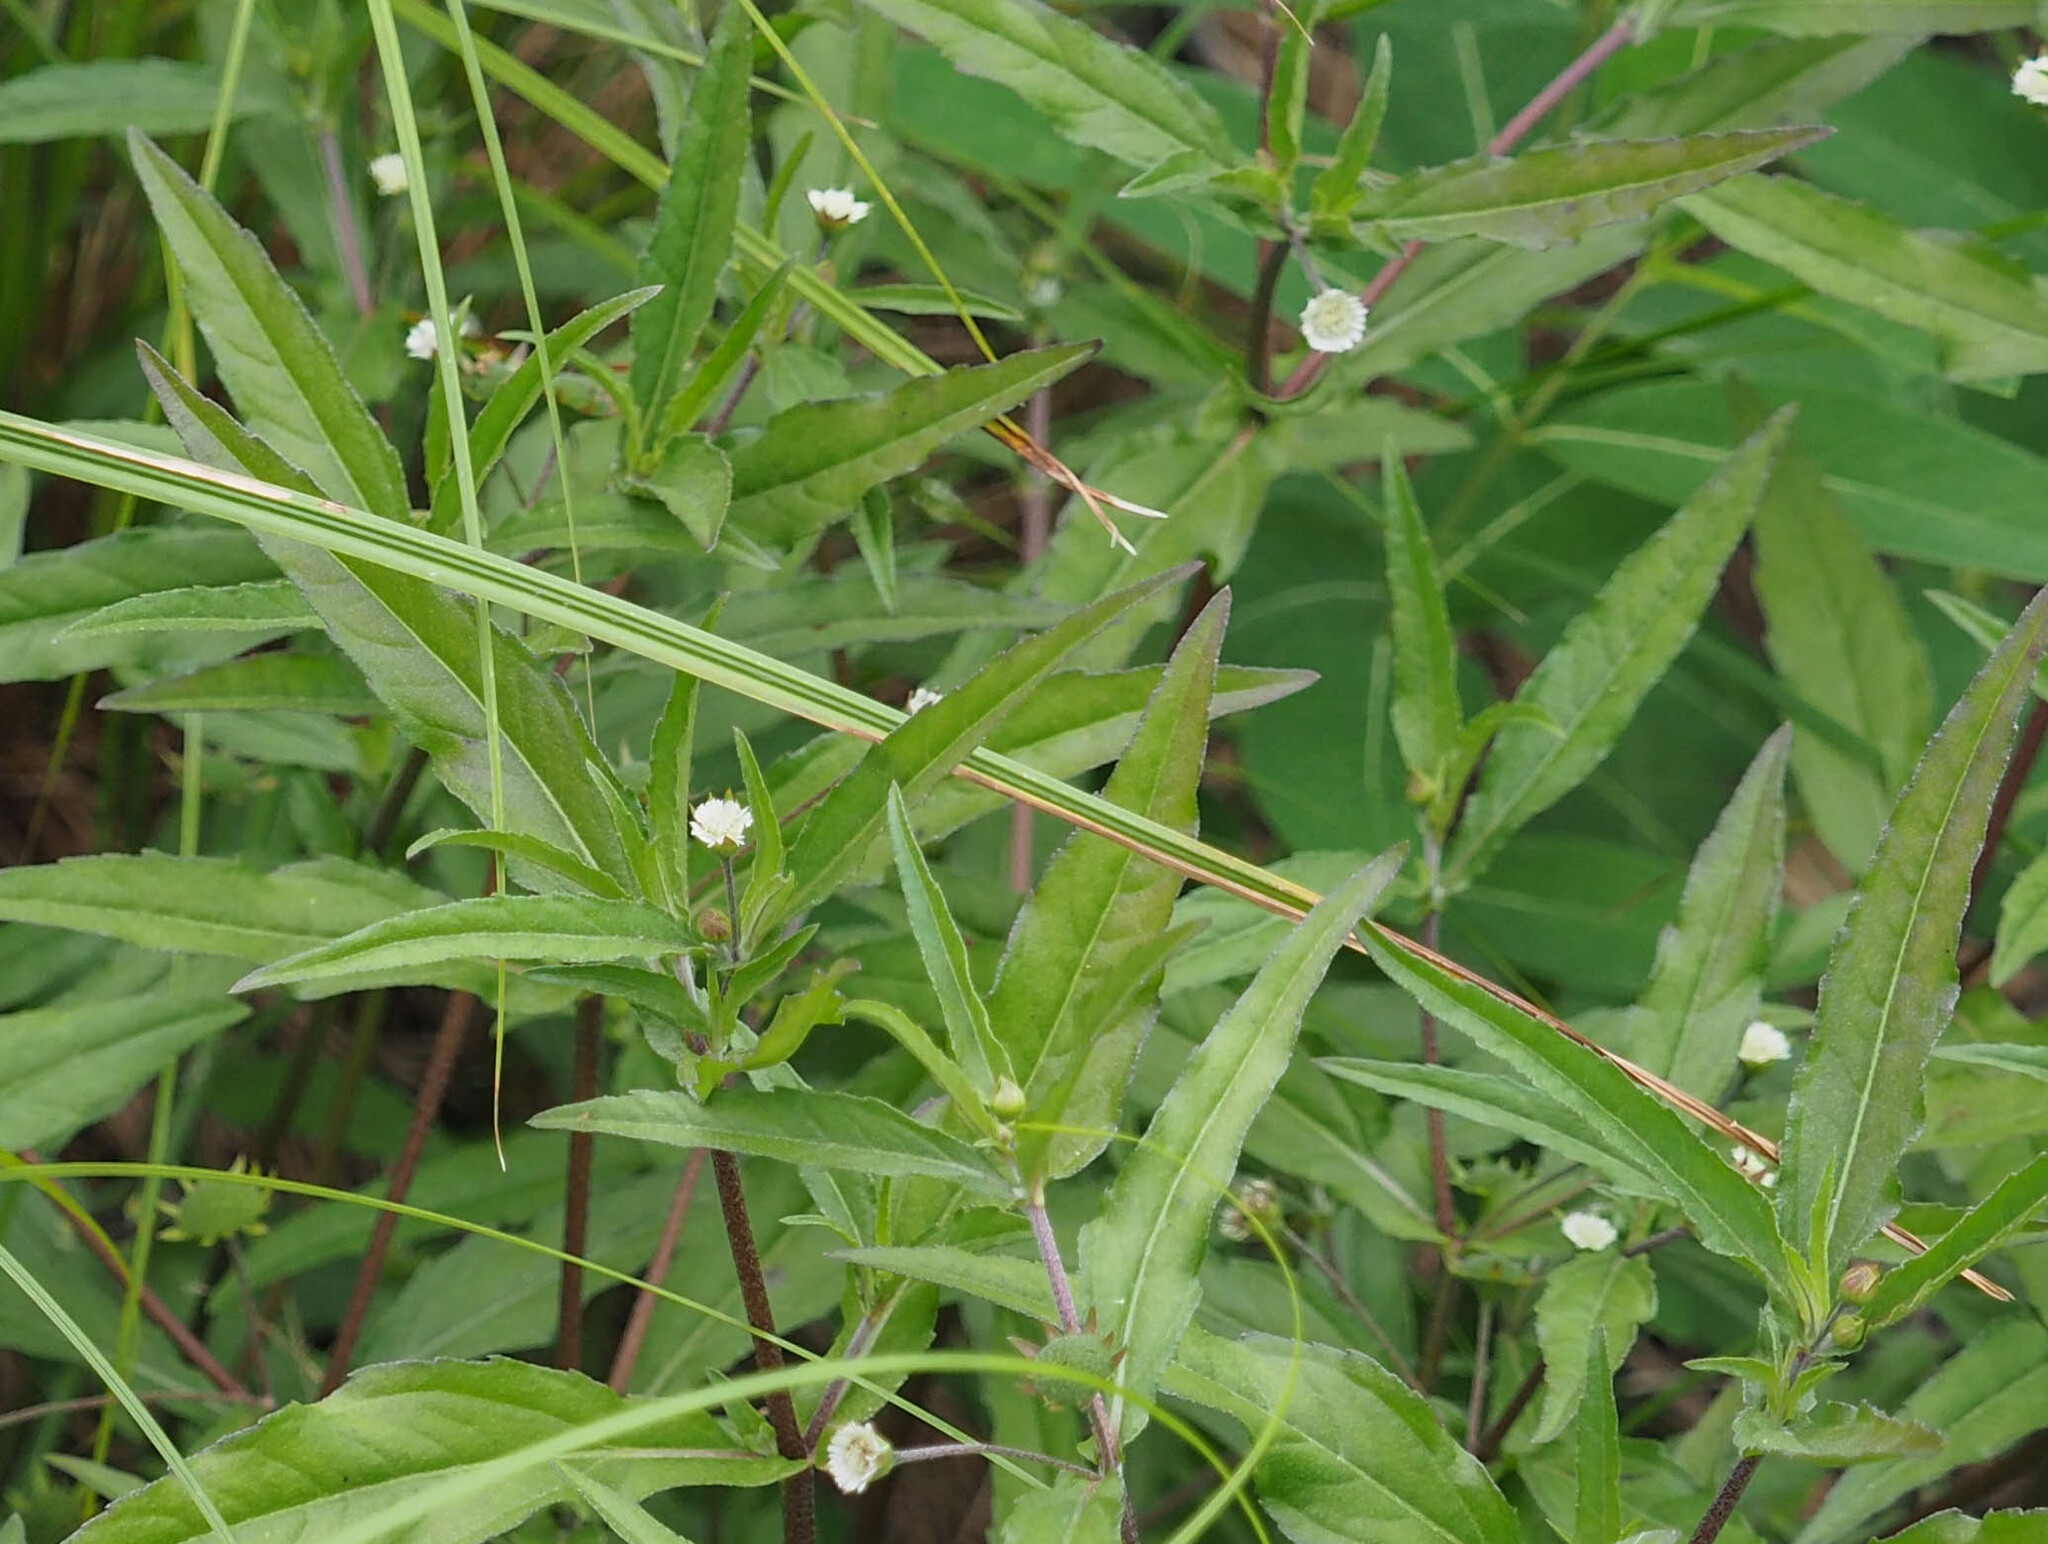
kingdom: Plantae
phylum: Tracheophyta
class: Magnoliopsida
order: Asterales
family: Asteraceae
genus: Eclipta
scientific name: Eclipta prostrata
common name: False daisy
